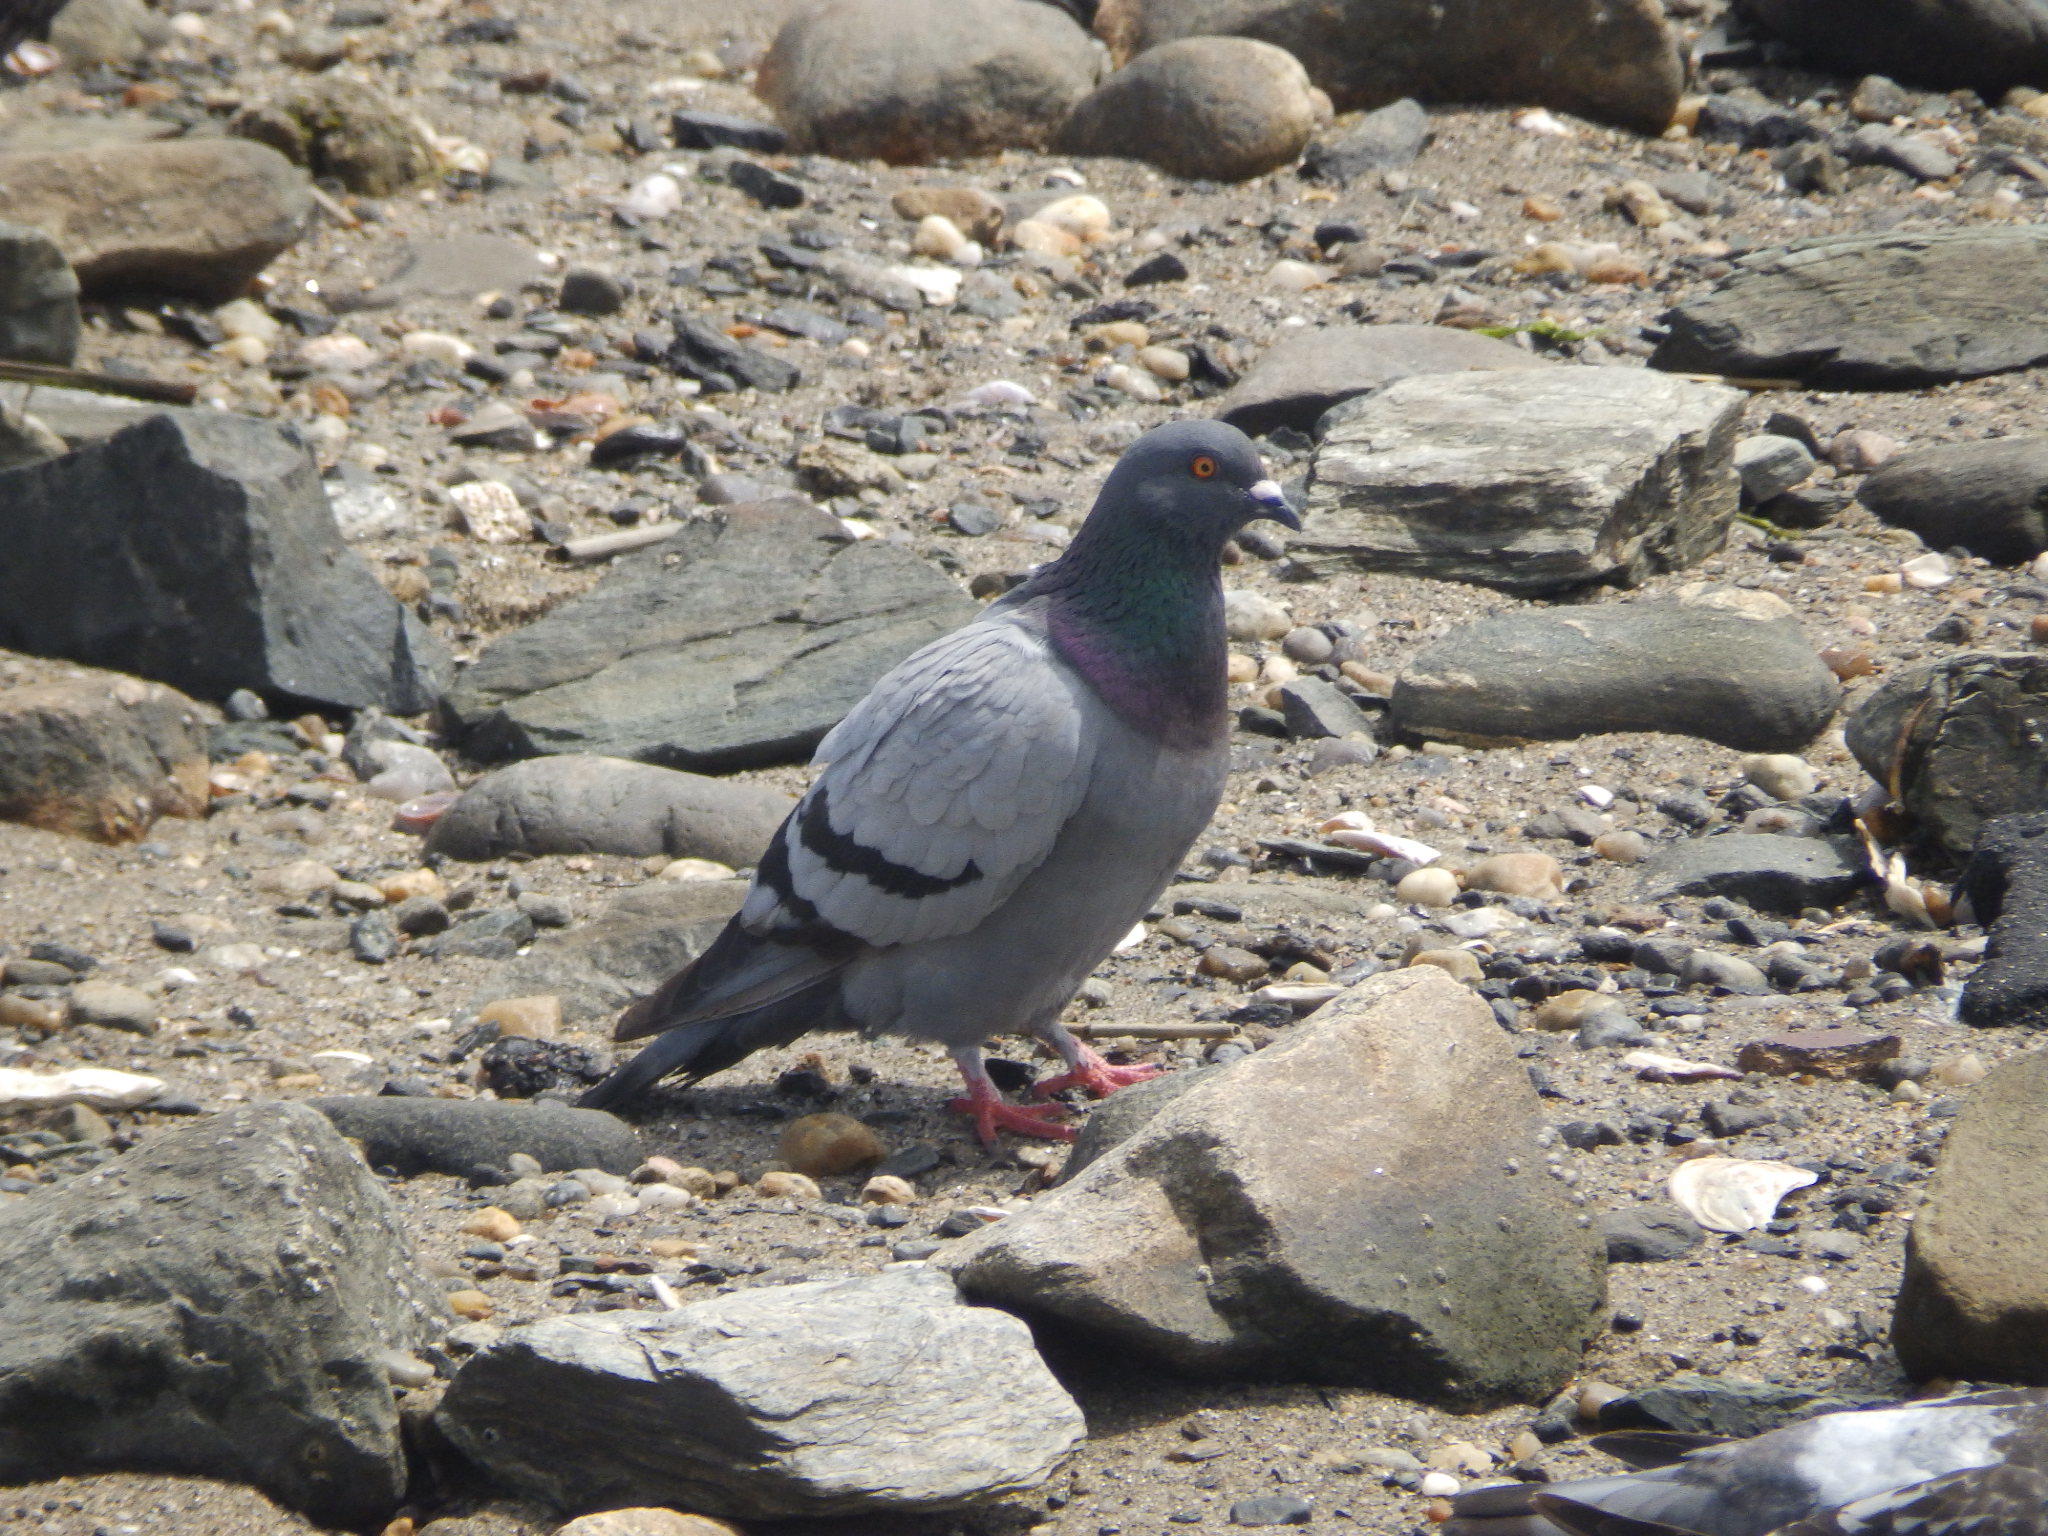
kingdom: Animalia
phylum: Chordata
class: Aves
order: Columbiformes
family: Columbidae
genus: Columba
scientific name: Columba livia
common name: Rock pigeon
